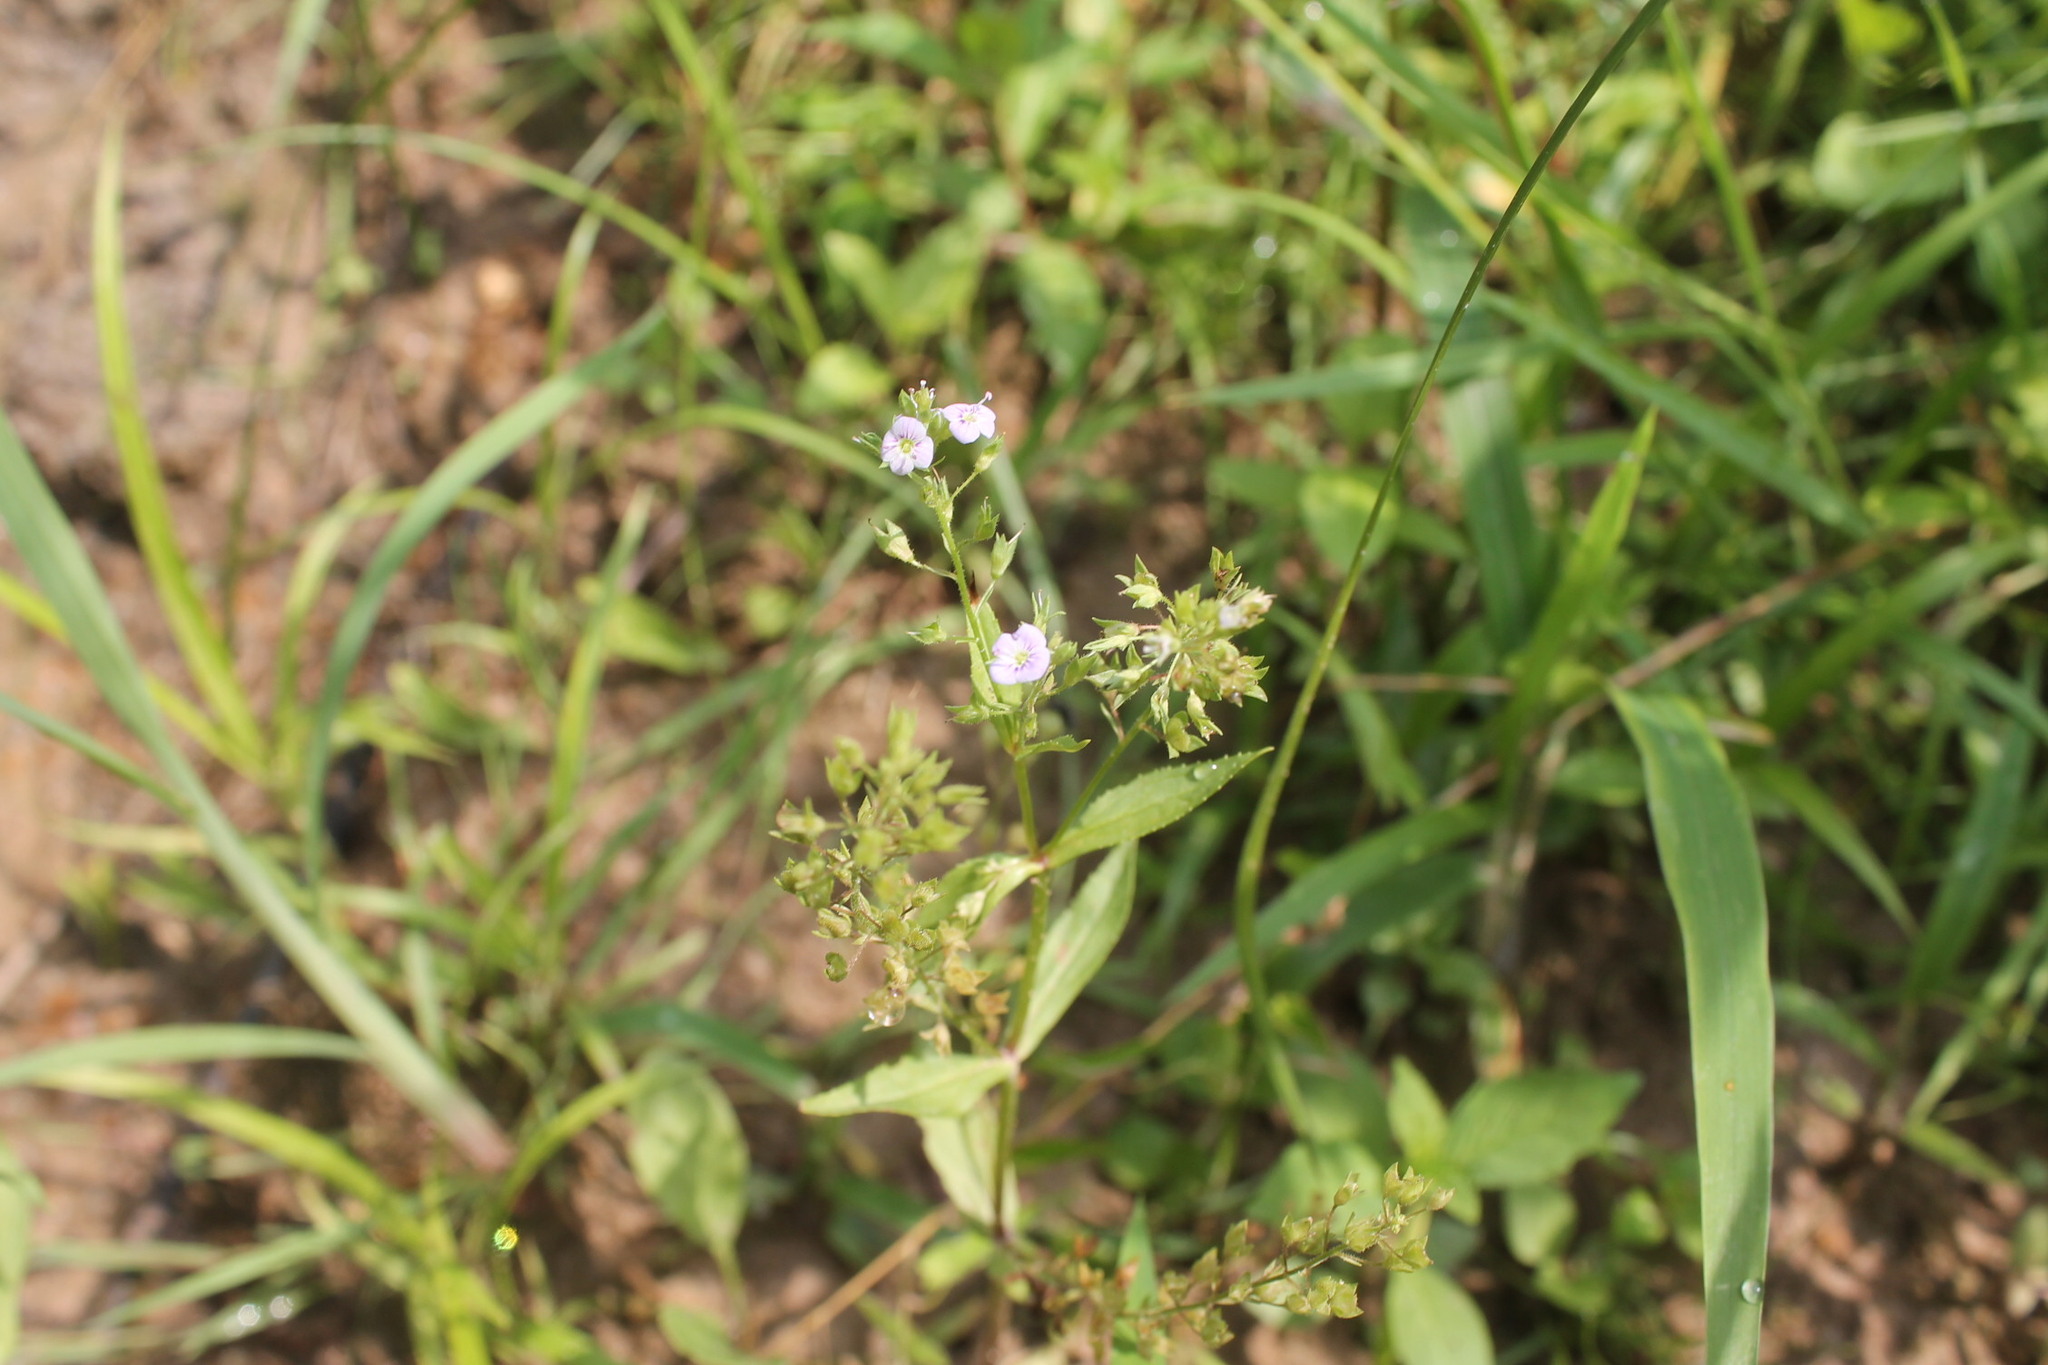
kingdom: Plantae
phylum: Tracheophyta
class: Magnoliopsida
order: Lamiales
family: Plantaginaceae
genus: Veronica
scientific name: Veronica anagallis-aquatica
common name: Water speedwell
